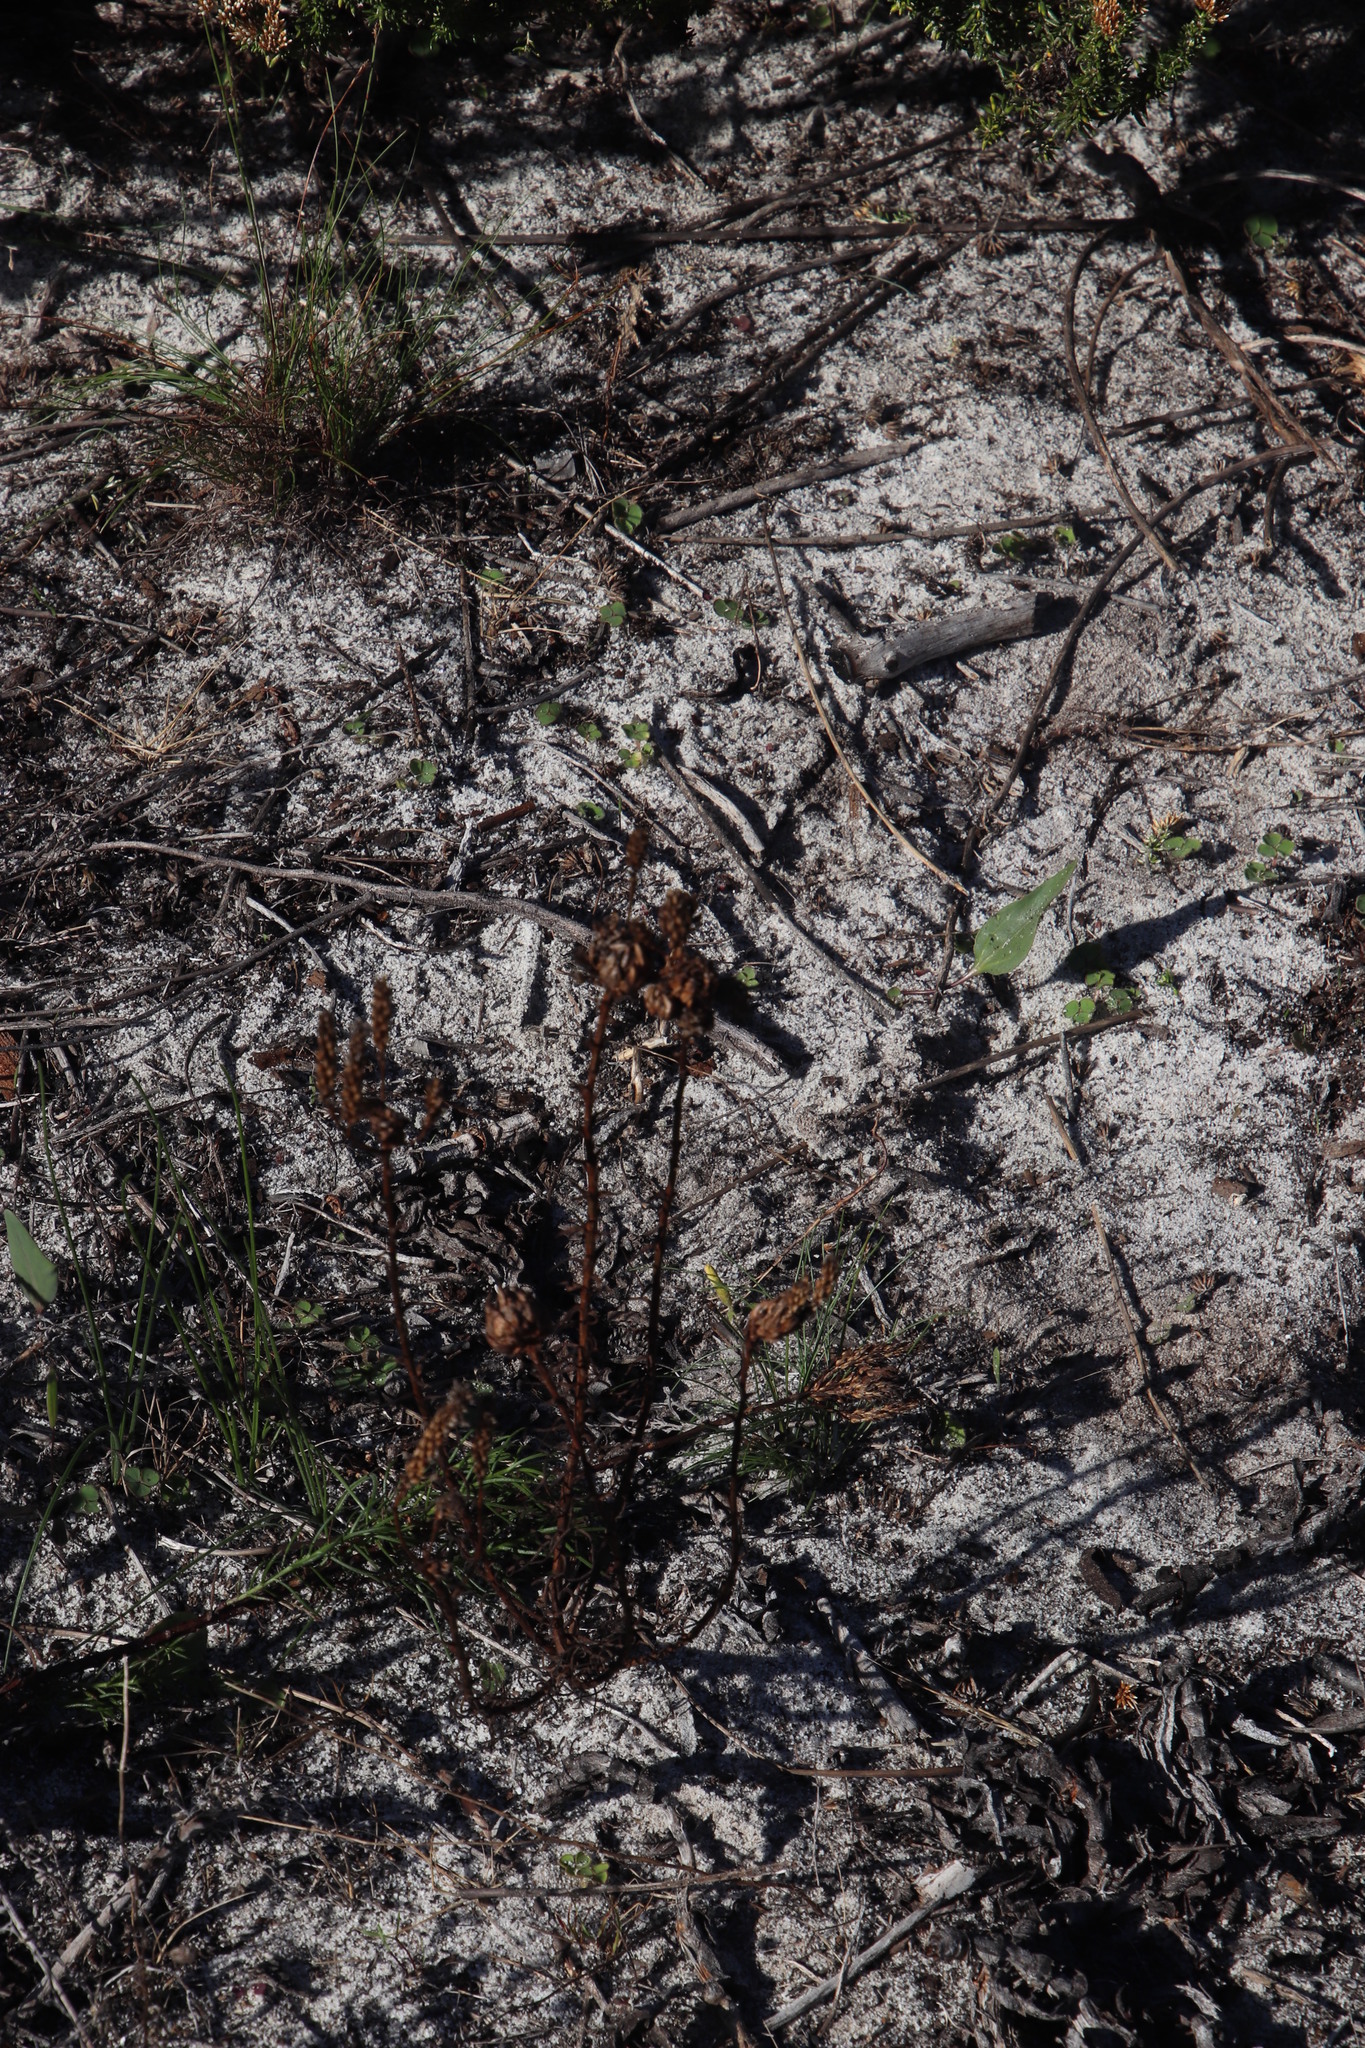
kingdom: Plantae
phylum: Tracheophyta
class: Magnoliopsida
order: Lamiales
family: Scrophulariaceae
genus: Pseudoselago
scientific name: Pseudoselago spuria
